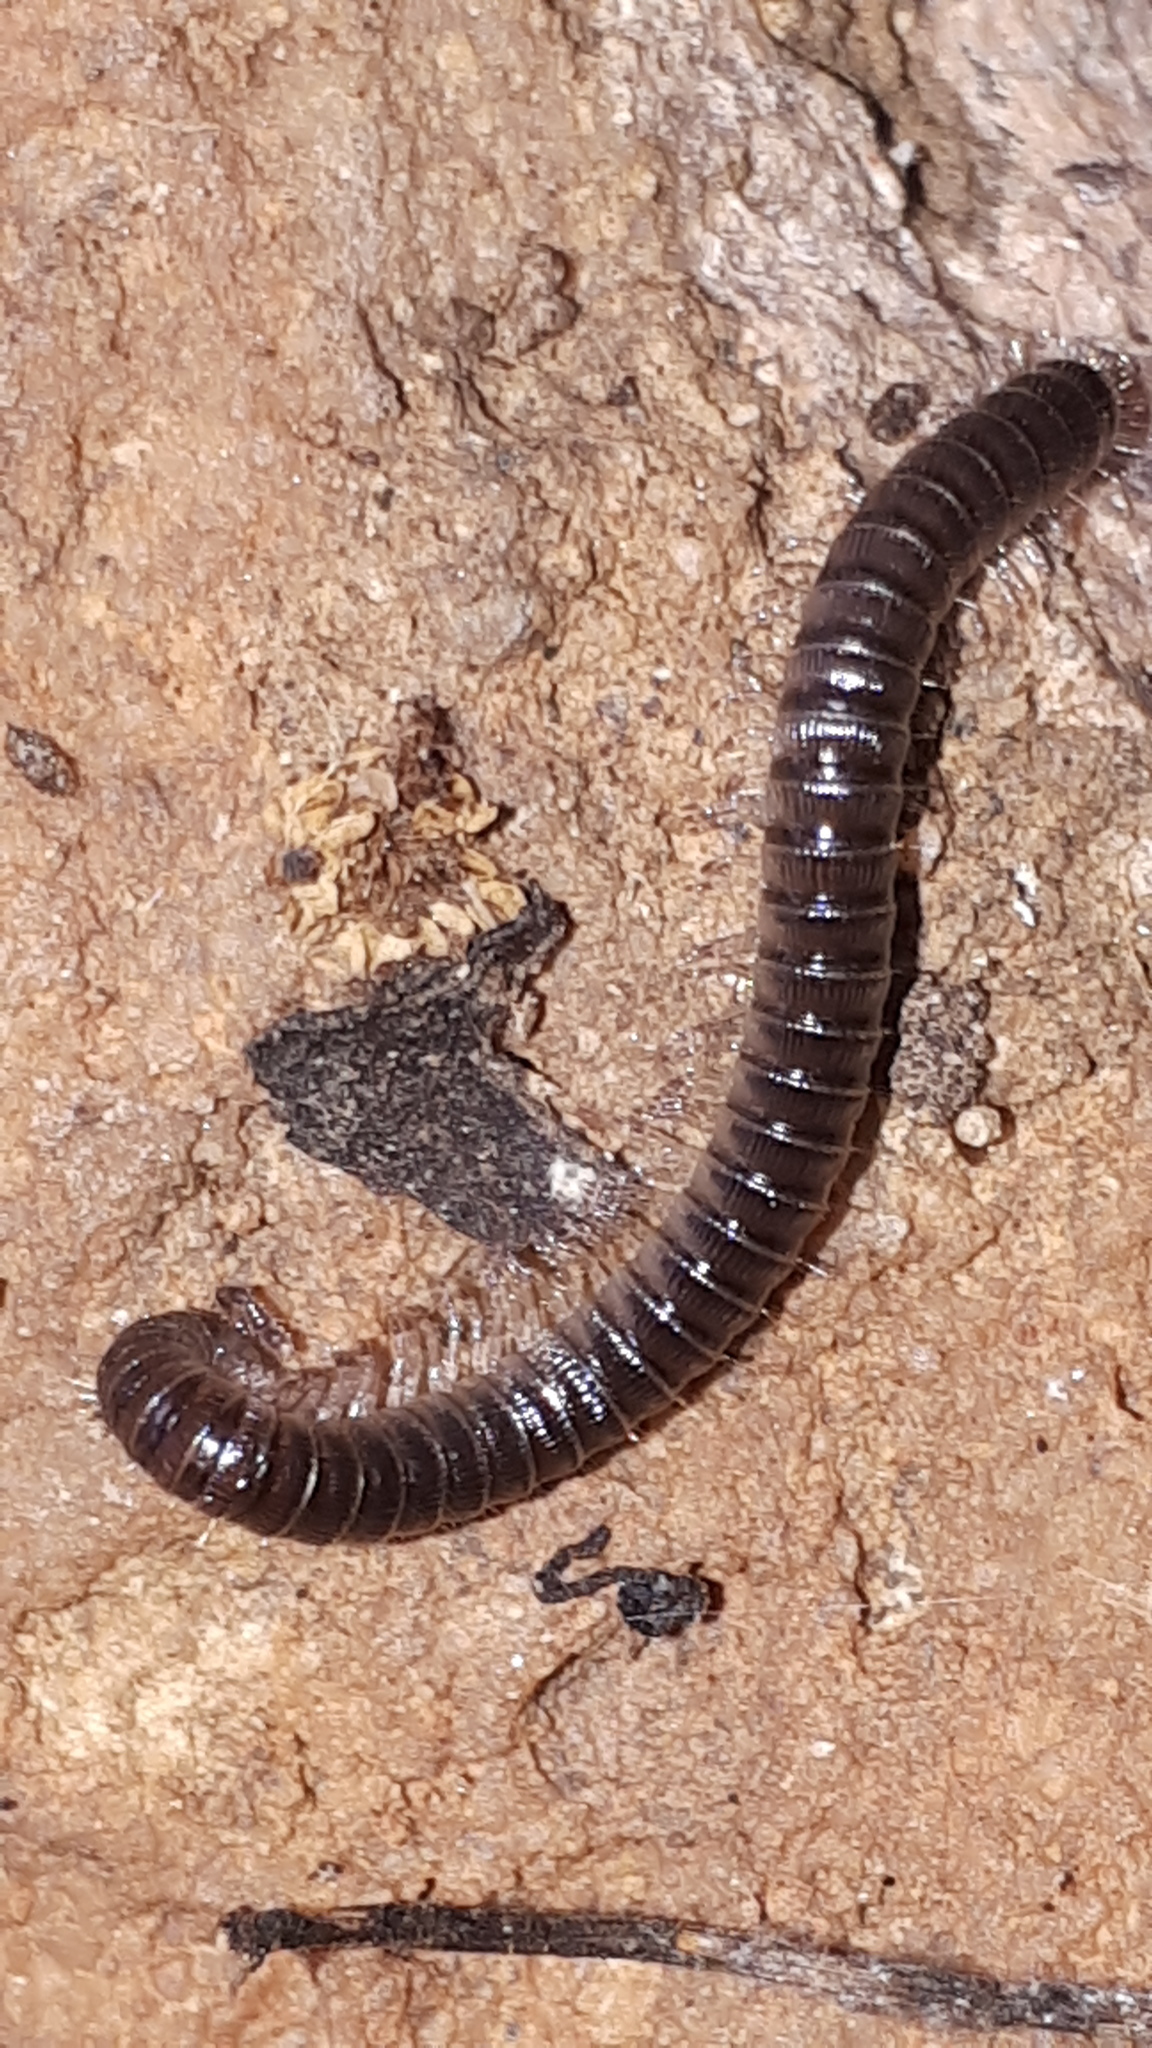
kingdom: Animalia
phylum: Arthropoda
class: Diplopoda
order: Julida
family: Julidae
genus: Unciger
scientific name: Unciger foetidus
